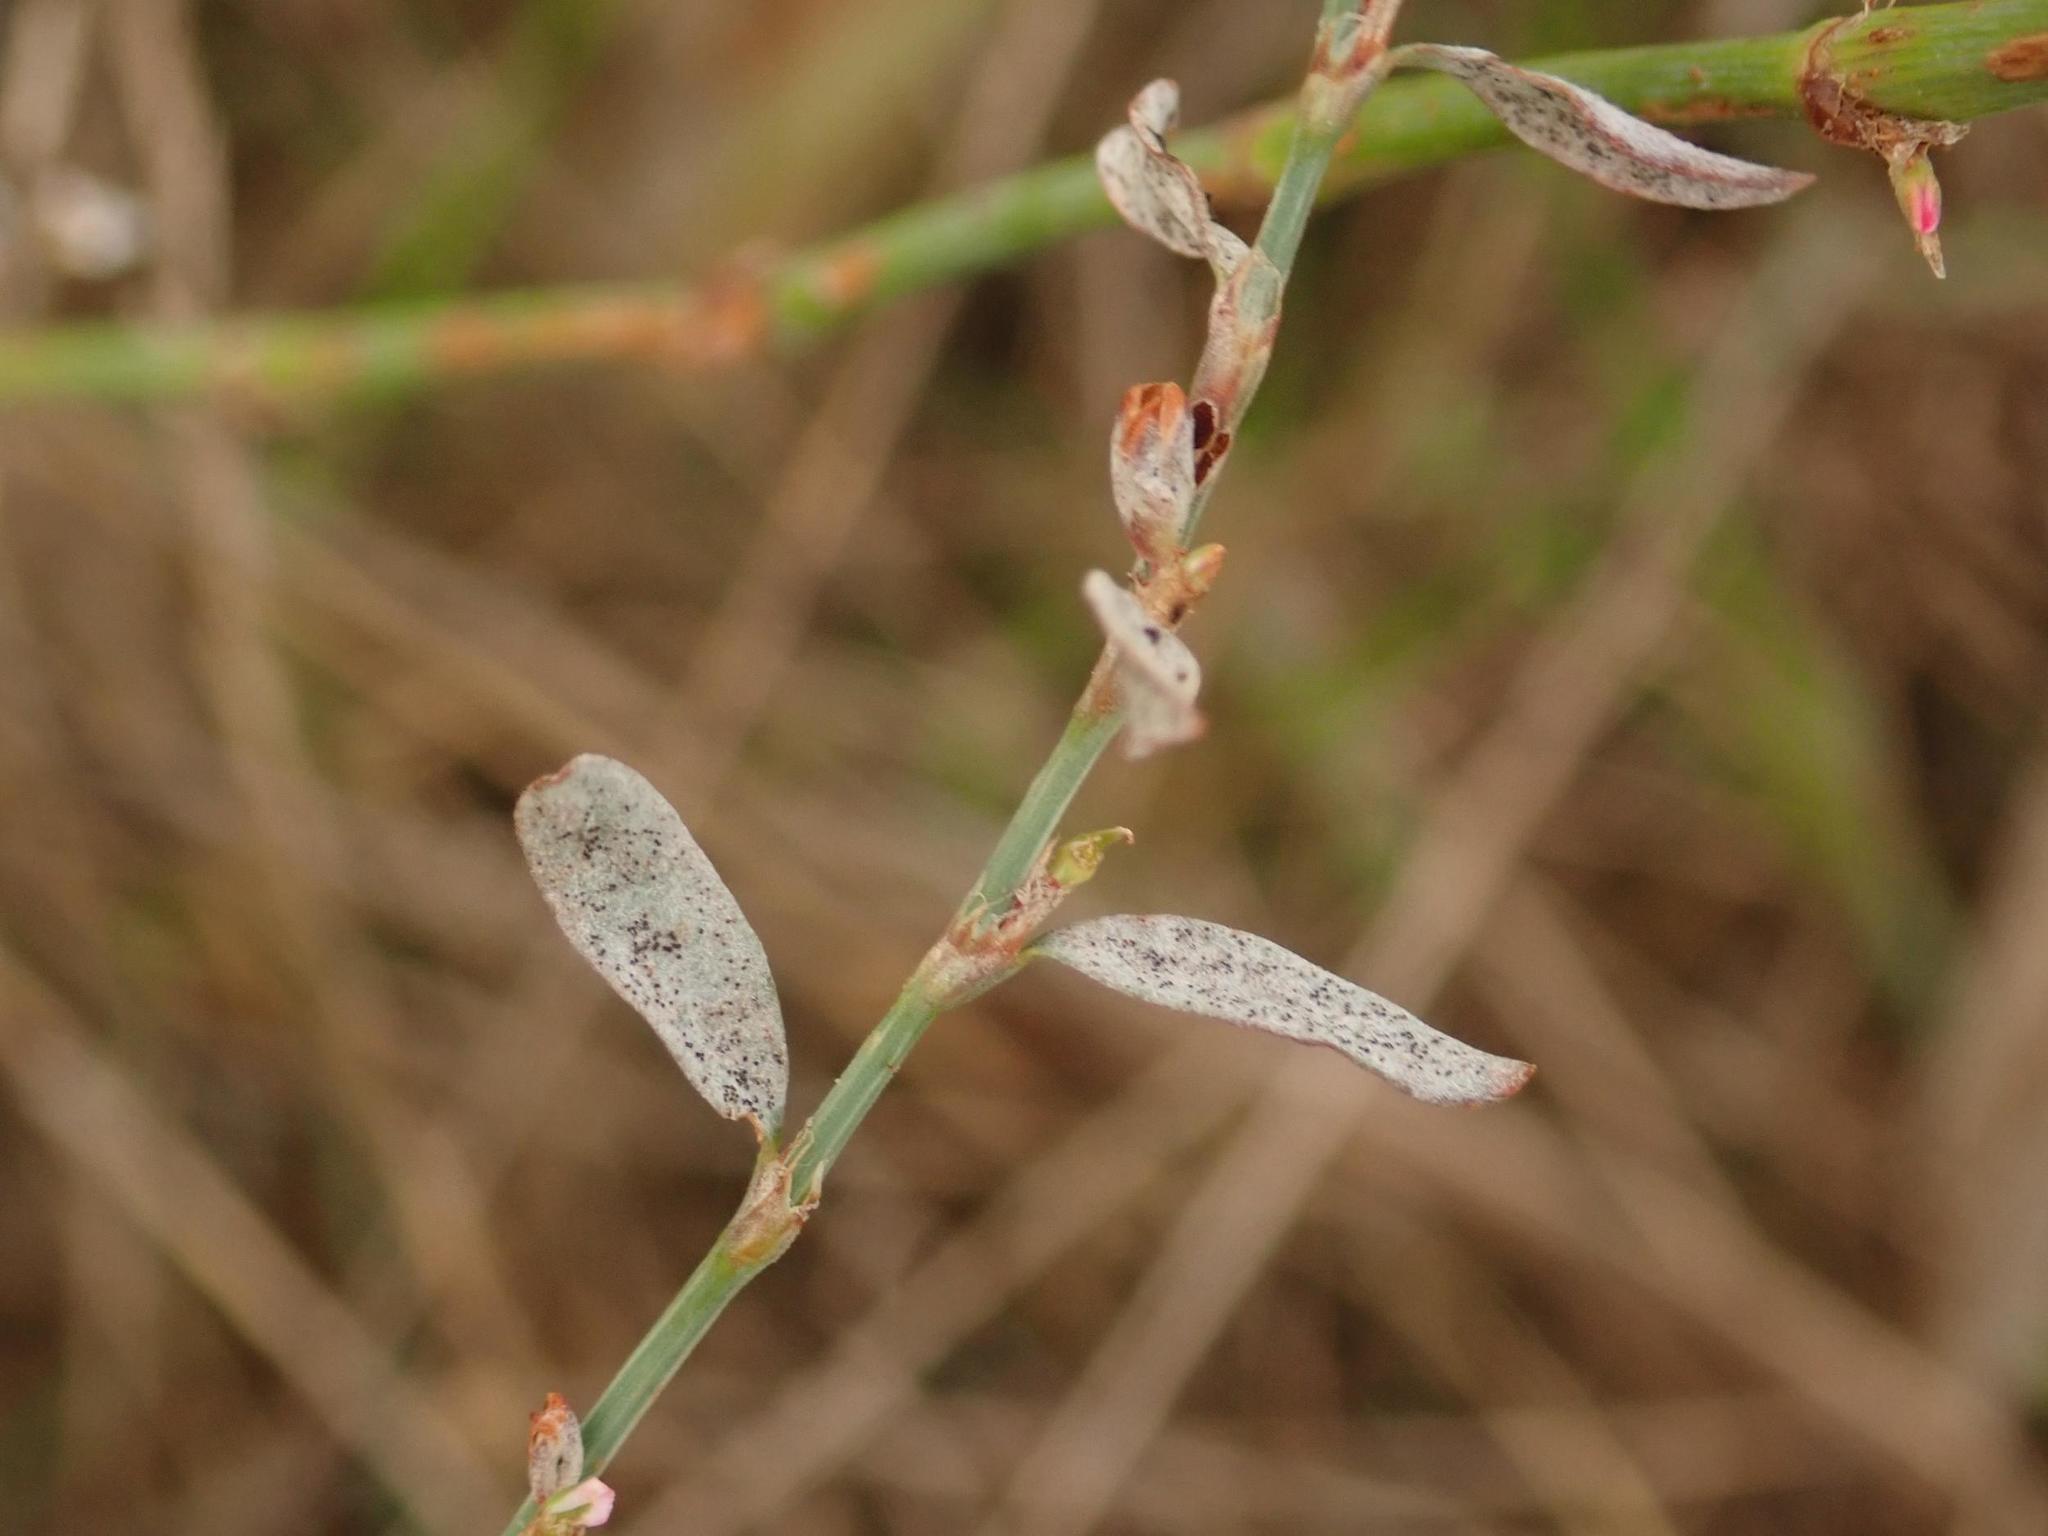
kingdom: Plantae
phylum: Tracheophyta
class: Magnoliopsida
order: Caryophyllales
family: Polygonaceae
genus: Polygonum
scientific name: Polygonum aviculare
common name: Prostrate knotweed
